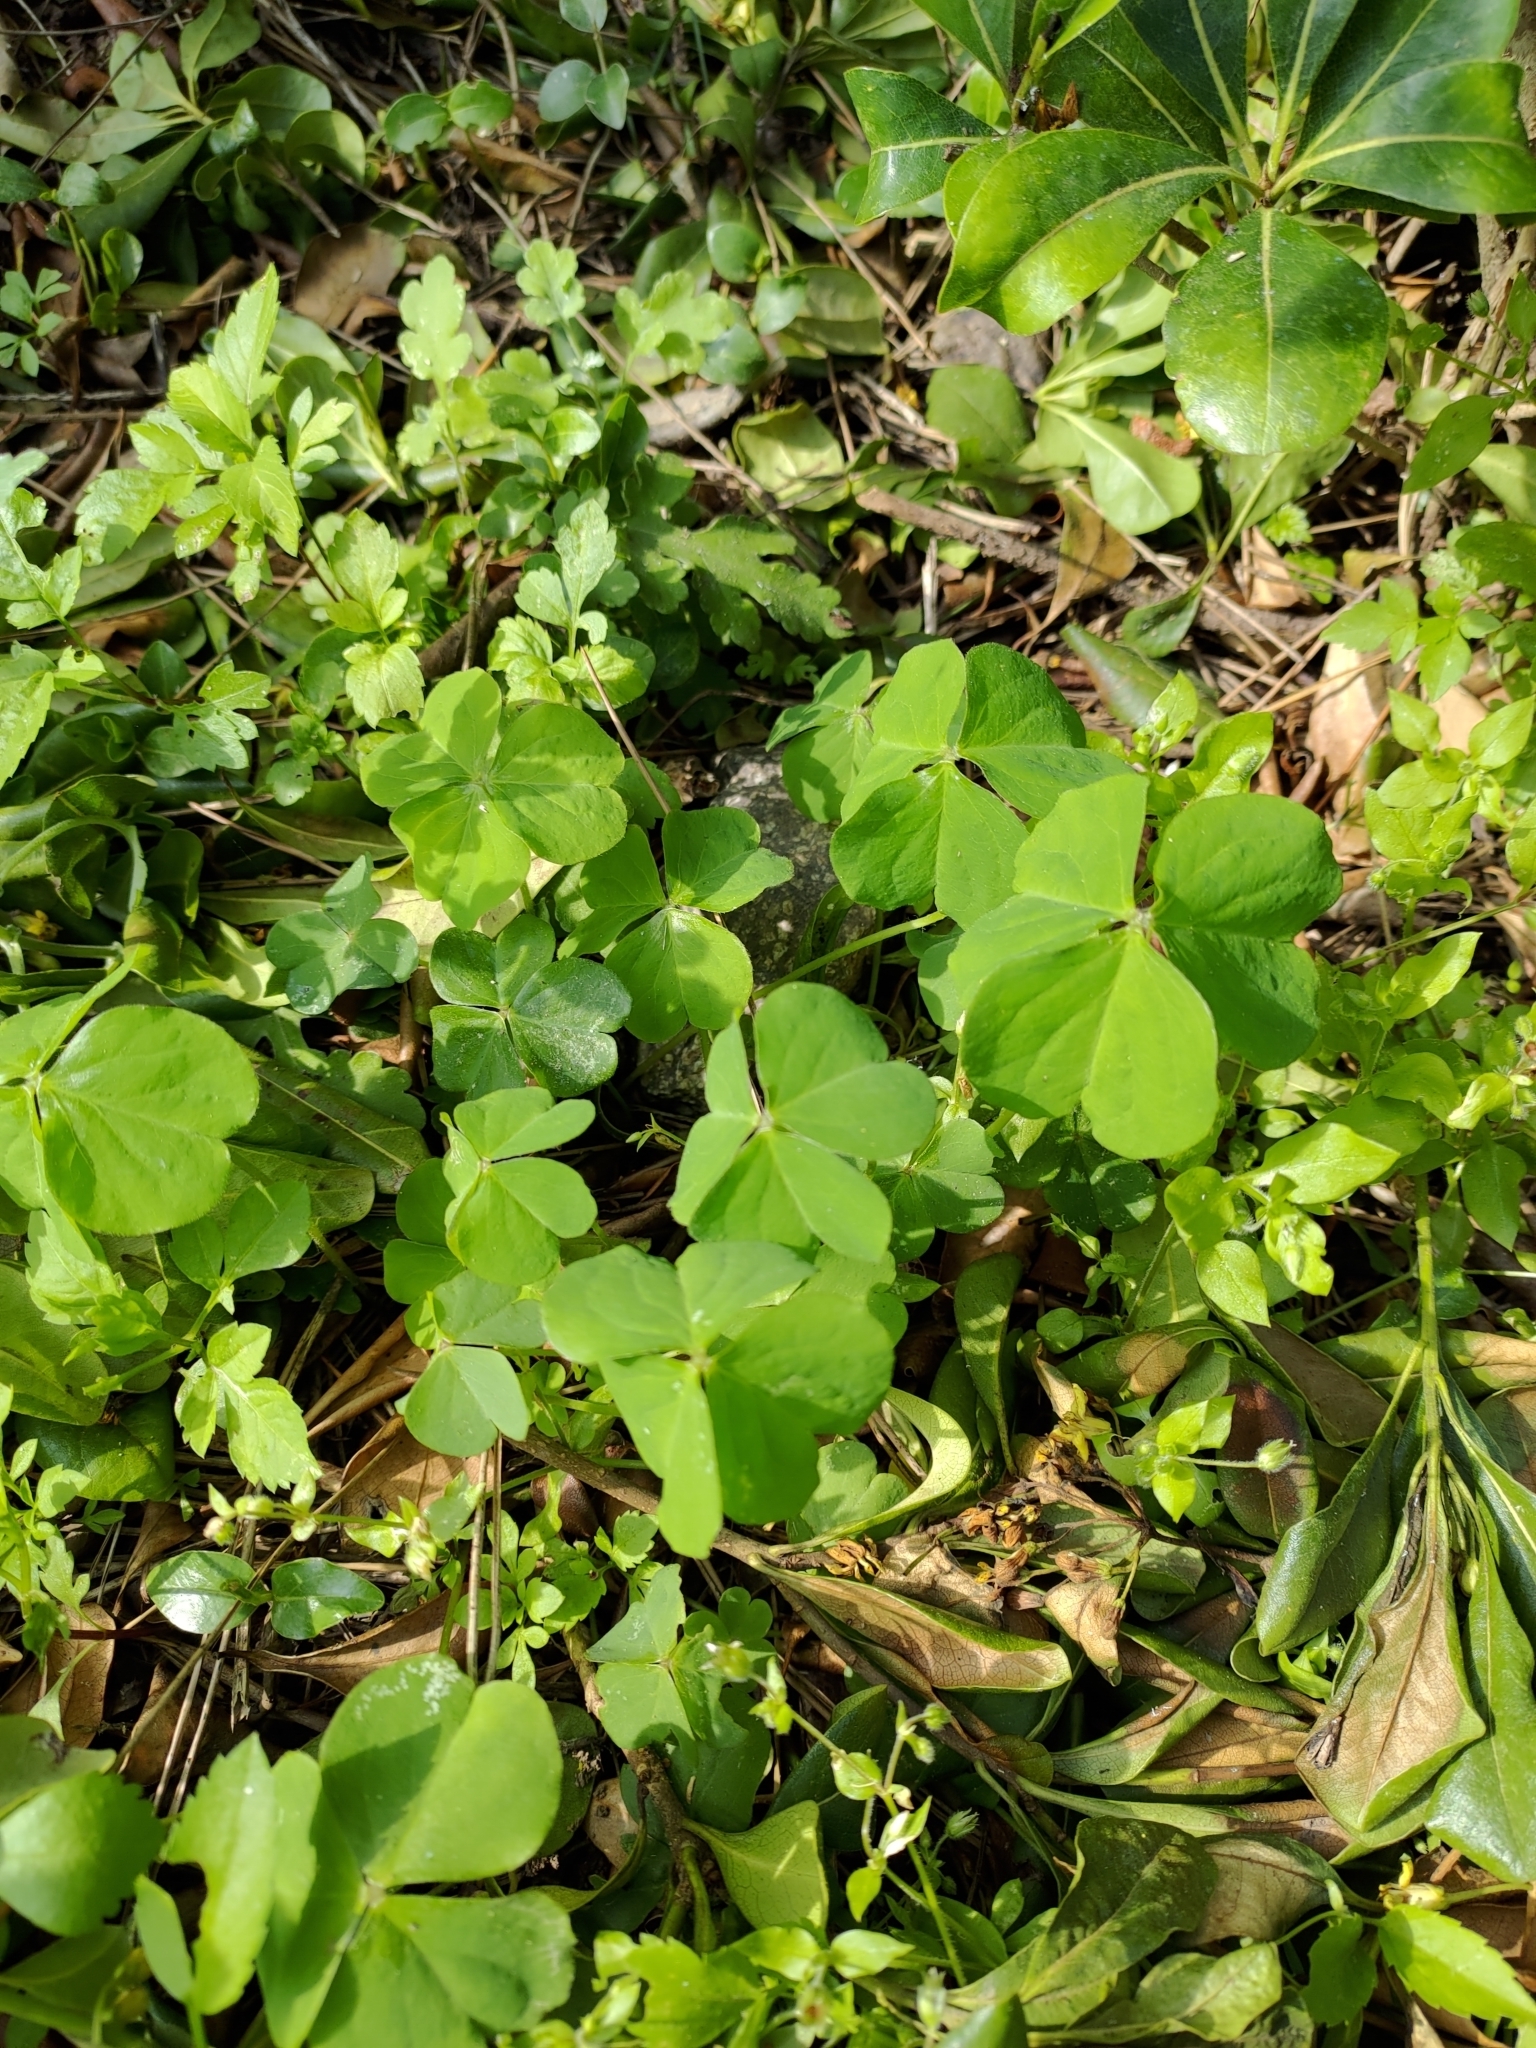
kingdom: Plantae
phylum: Tracheophyta
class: Magnoliopsida
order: Oxalidales
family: Oxalidaceae
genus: Oxalis
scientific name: Oxalis debilis
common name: Large-flowered pink-sorrel
